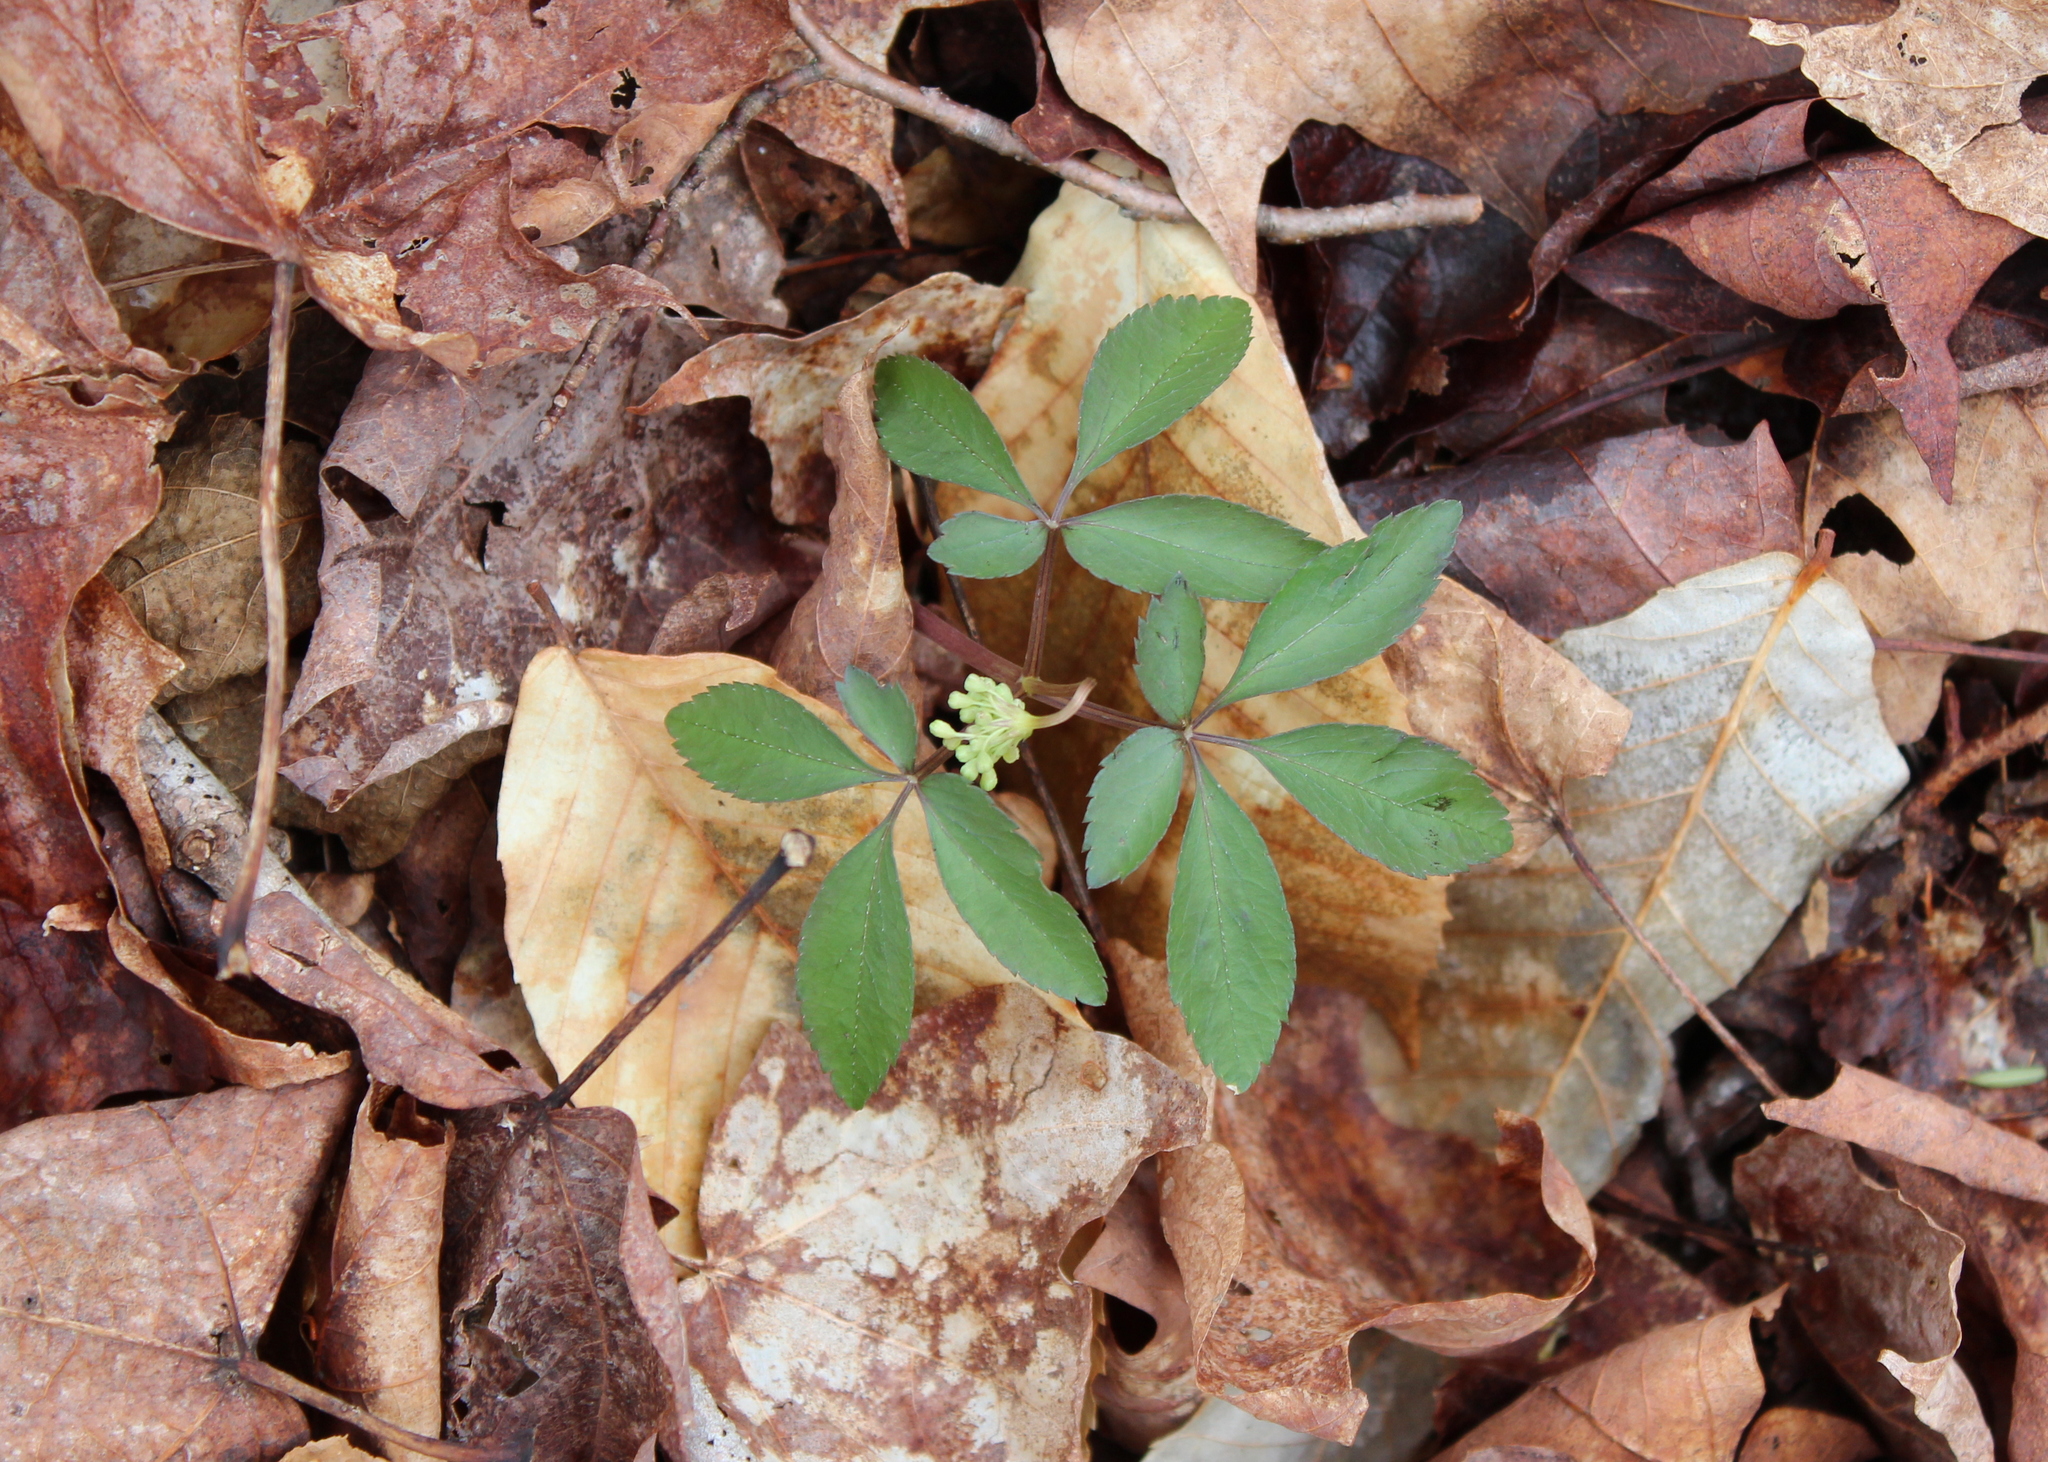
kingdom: Plantae
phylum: Tracheophyta
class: Magnoliopsida
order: Apiales
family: Araliaceae
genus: Panax
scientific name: Panax trifolius
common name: Dwarf ginseng
